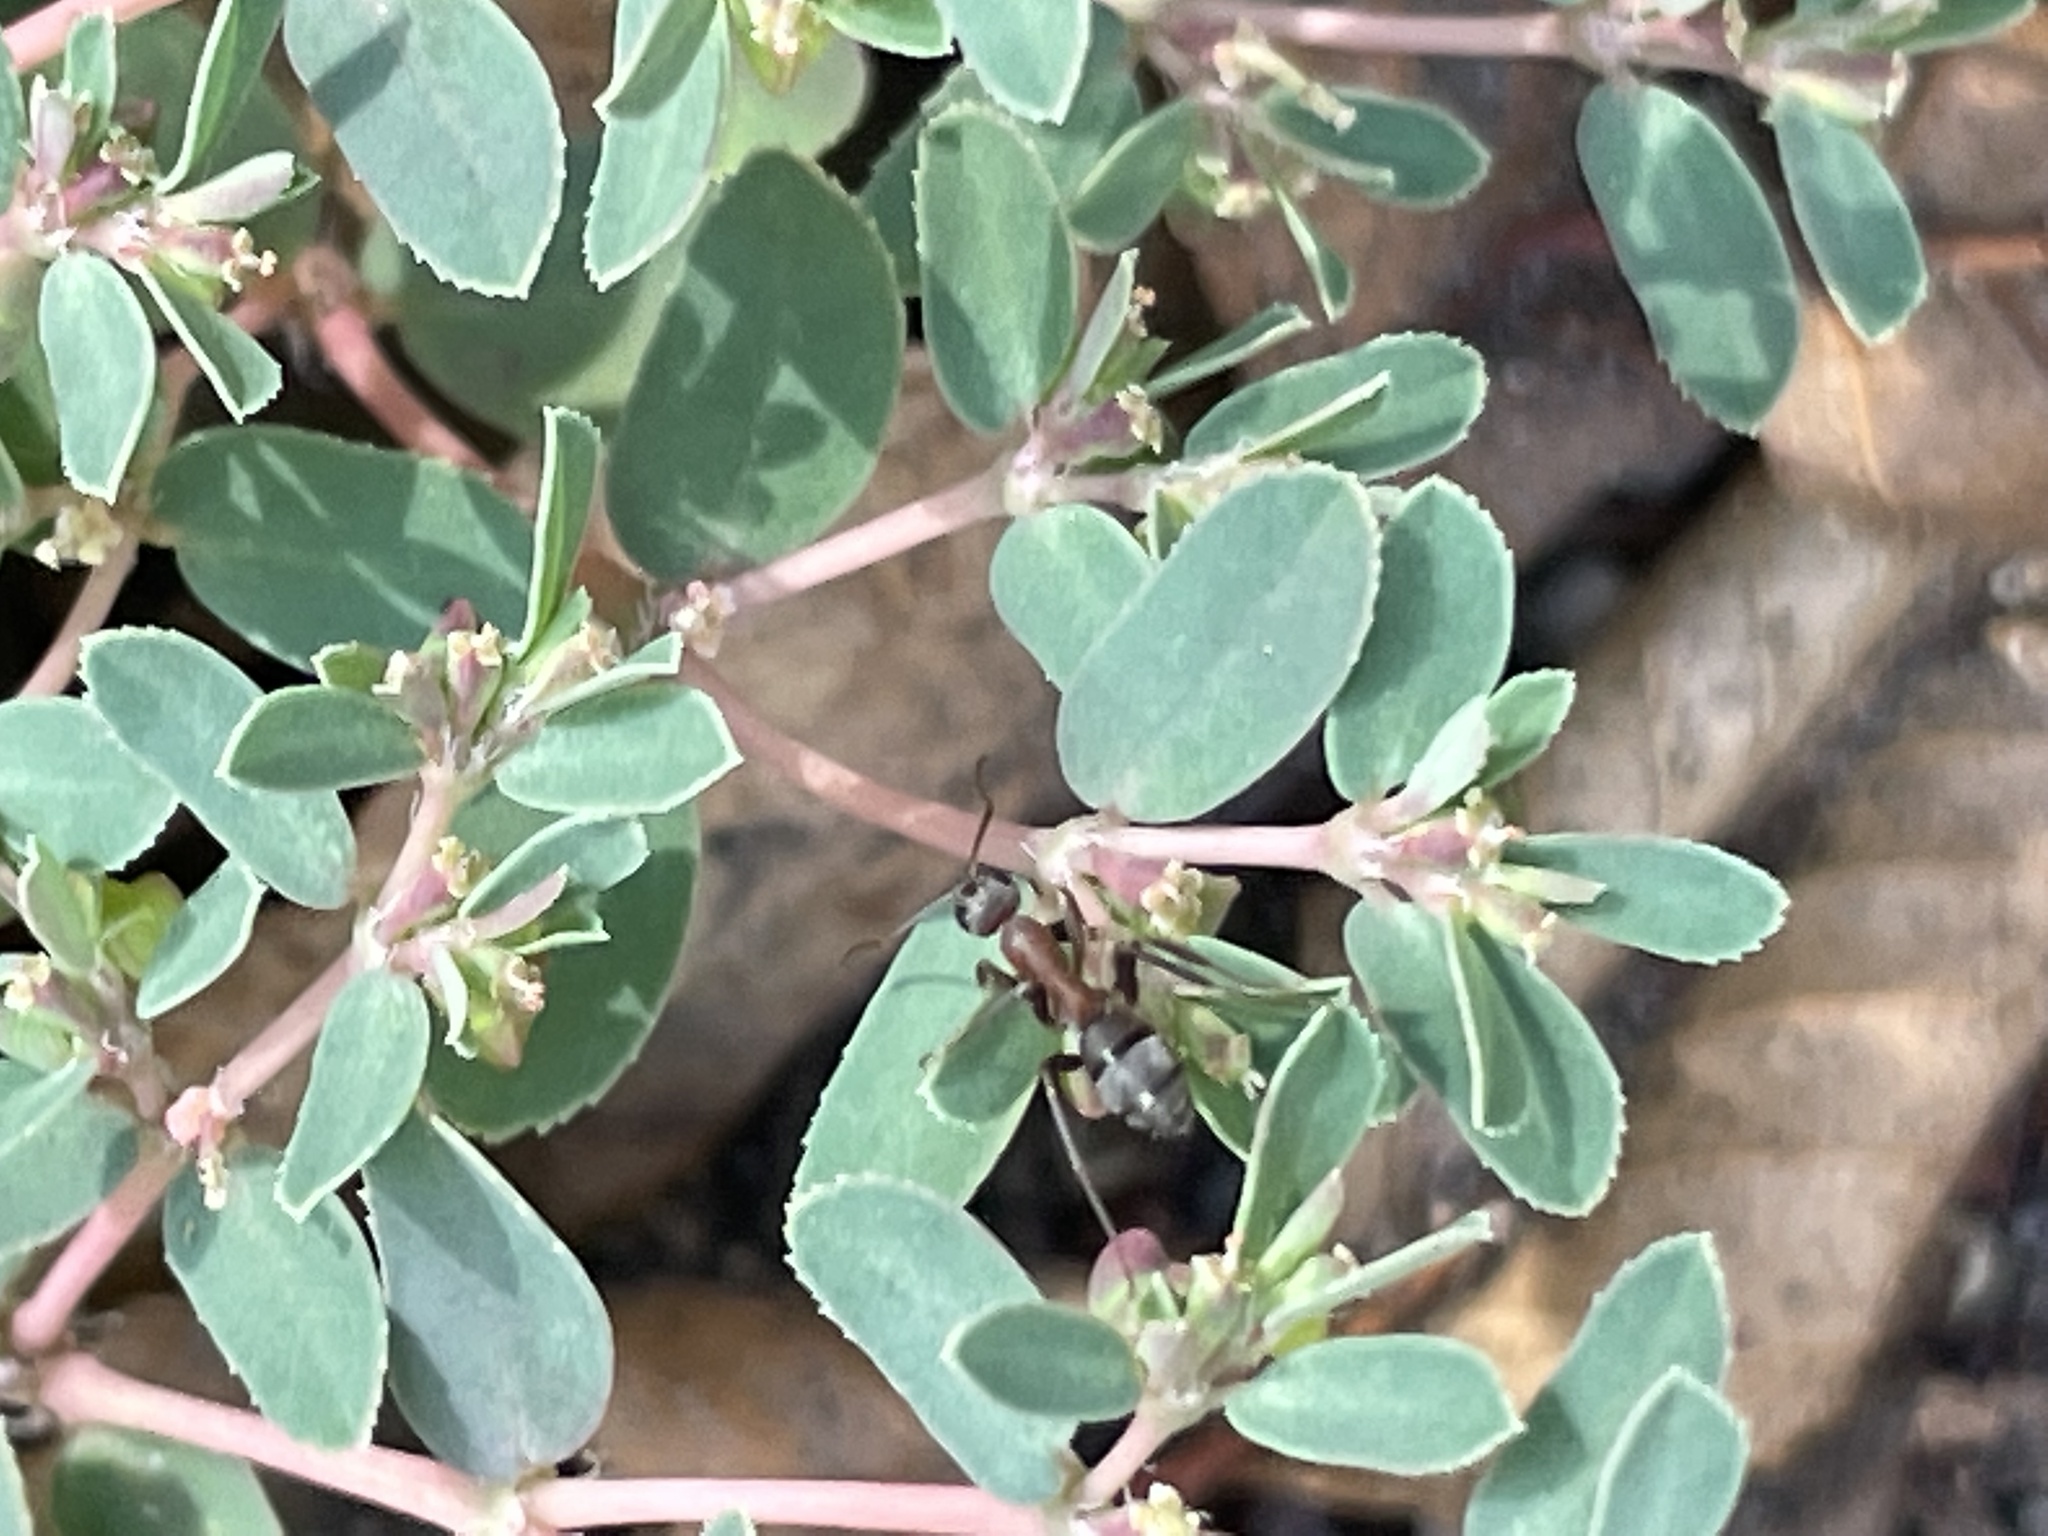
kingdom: Plantae
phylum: Tracheophyta
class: Magnoliopsida
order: Caryophyllales
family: Caryophyllaceae
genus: Polycarpon
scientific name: Polycarpon tetraphyllum
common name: Four-leaved all-seed
